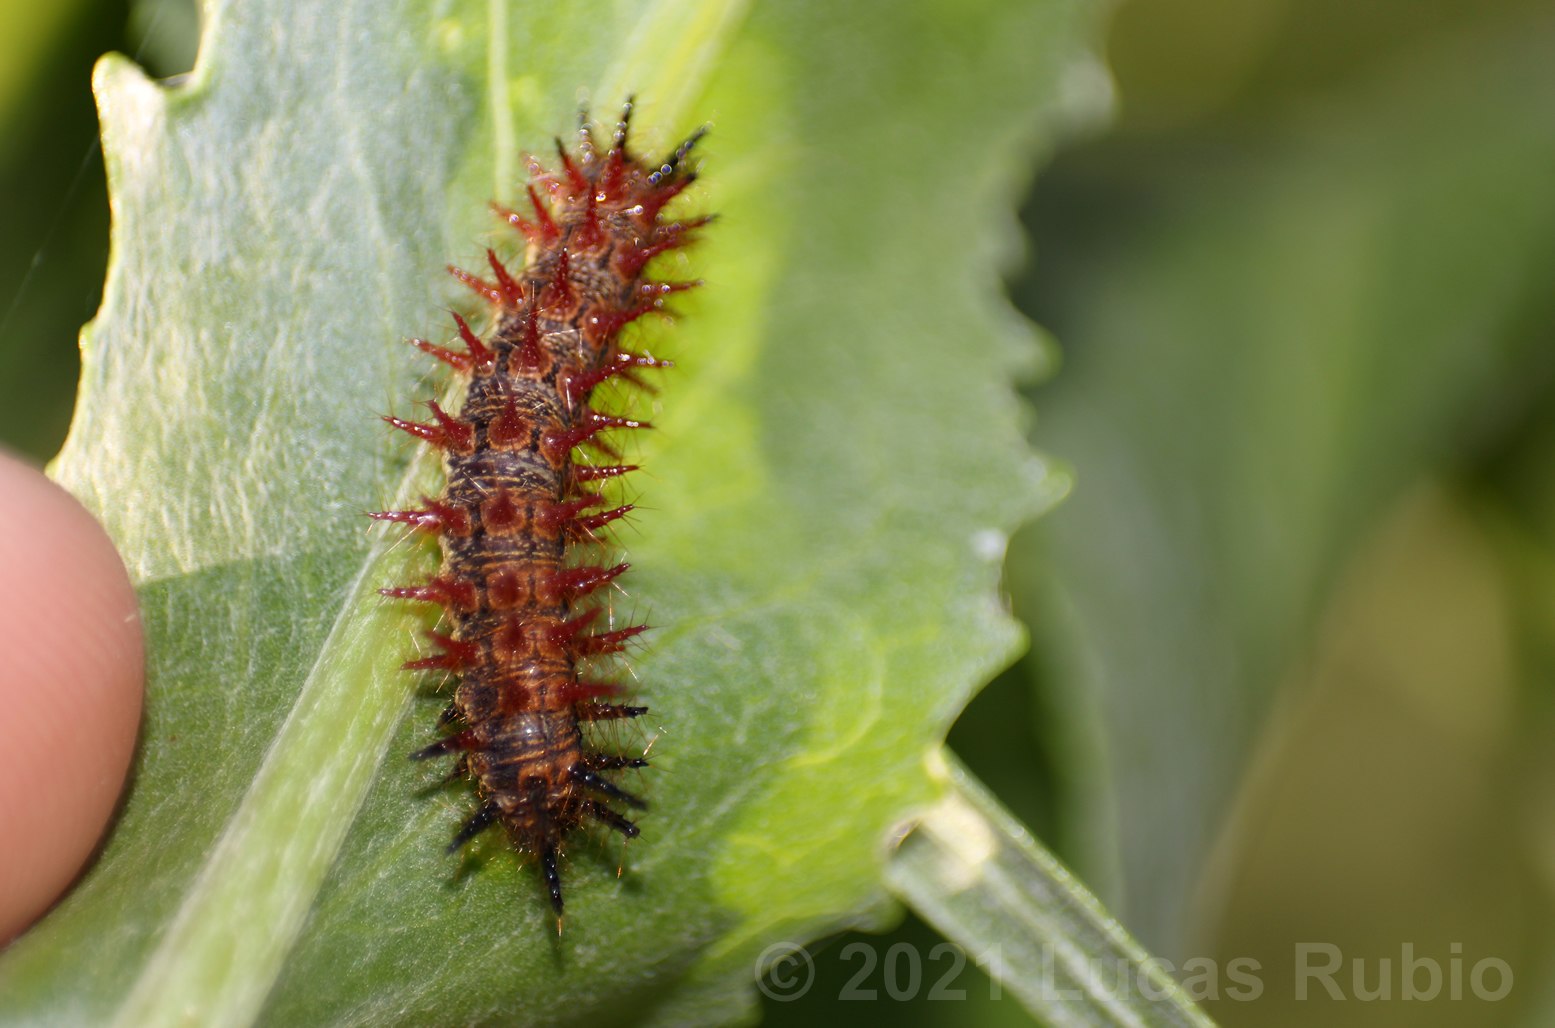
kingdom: Animalia
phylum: Arthropoda
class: Insecta
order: Lepidoptera
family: Nymphalidae
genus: Acraea
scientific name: Acraea momina
